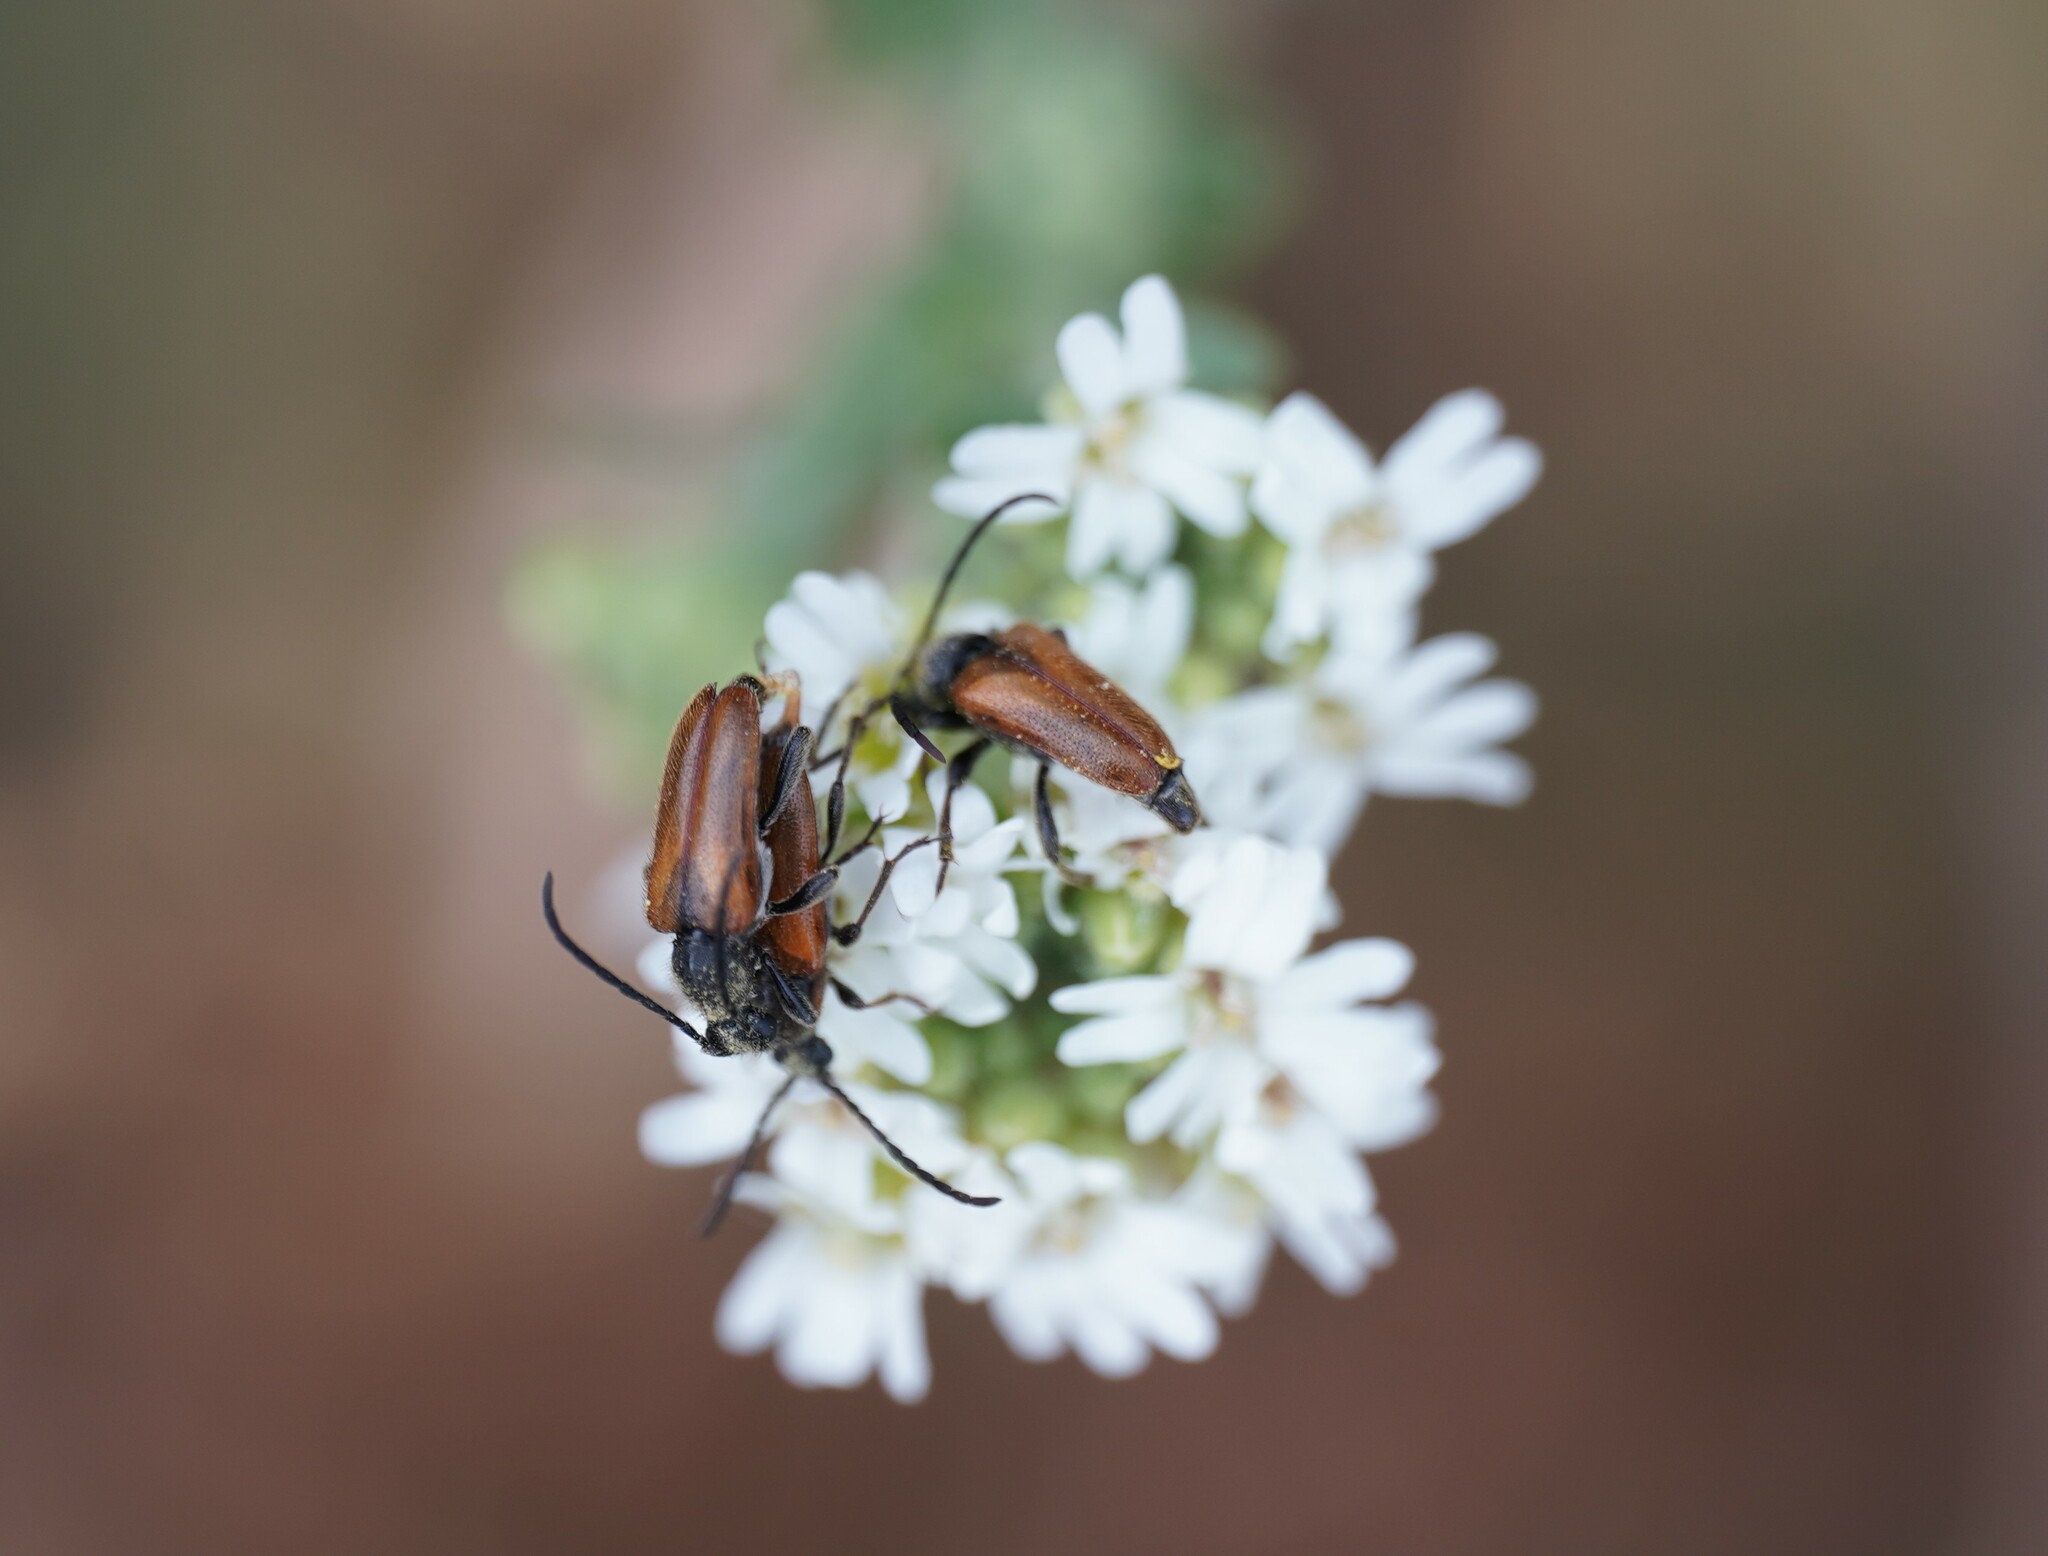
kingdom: Animalia
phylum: Arthropoda
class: Insecta
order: Coleoptera
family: Cerambycidae
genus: Pseudovadonia
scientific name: Pseudovadonia livida
